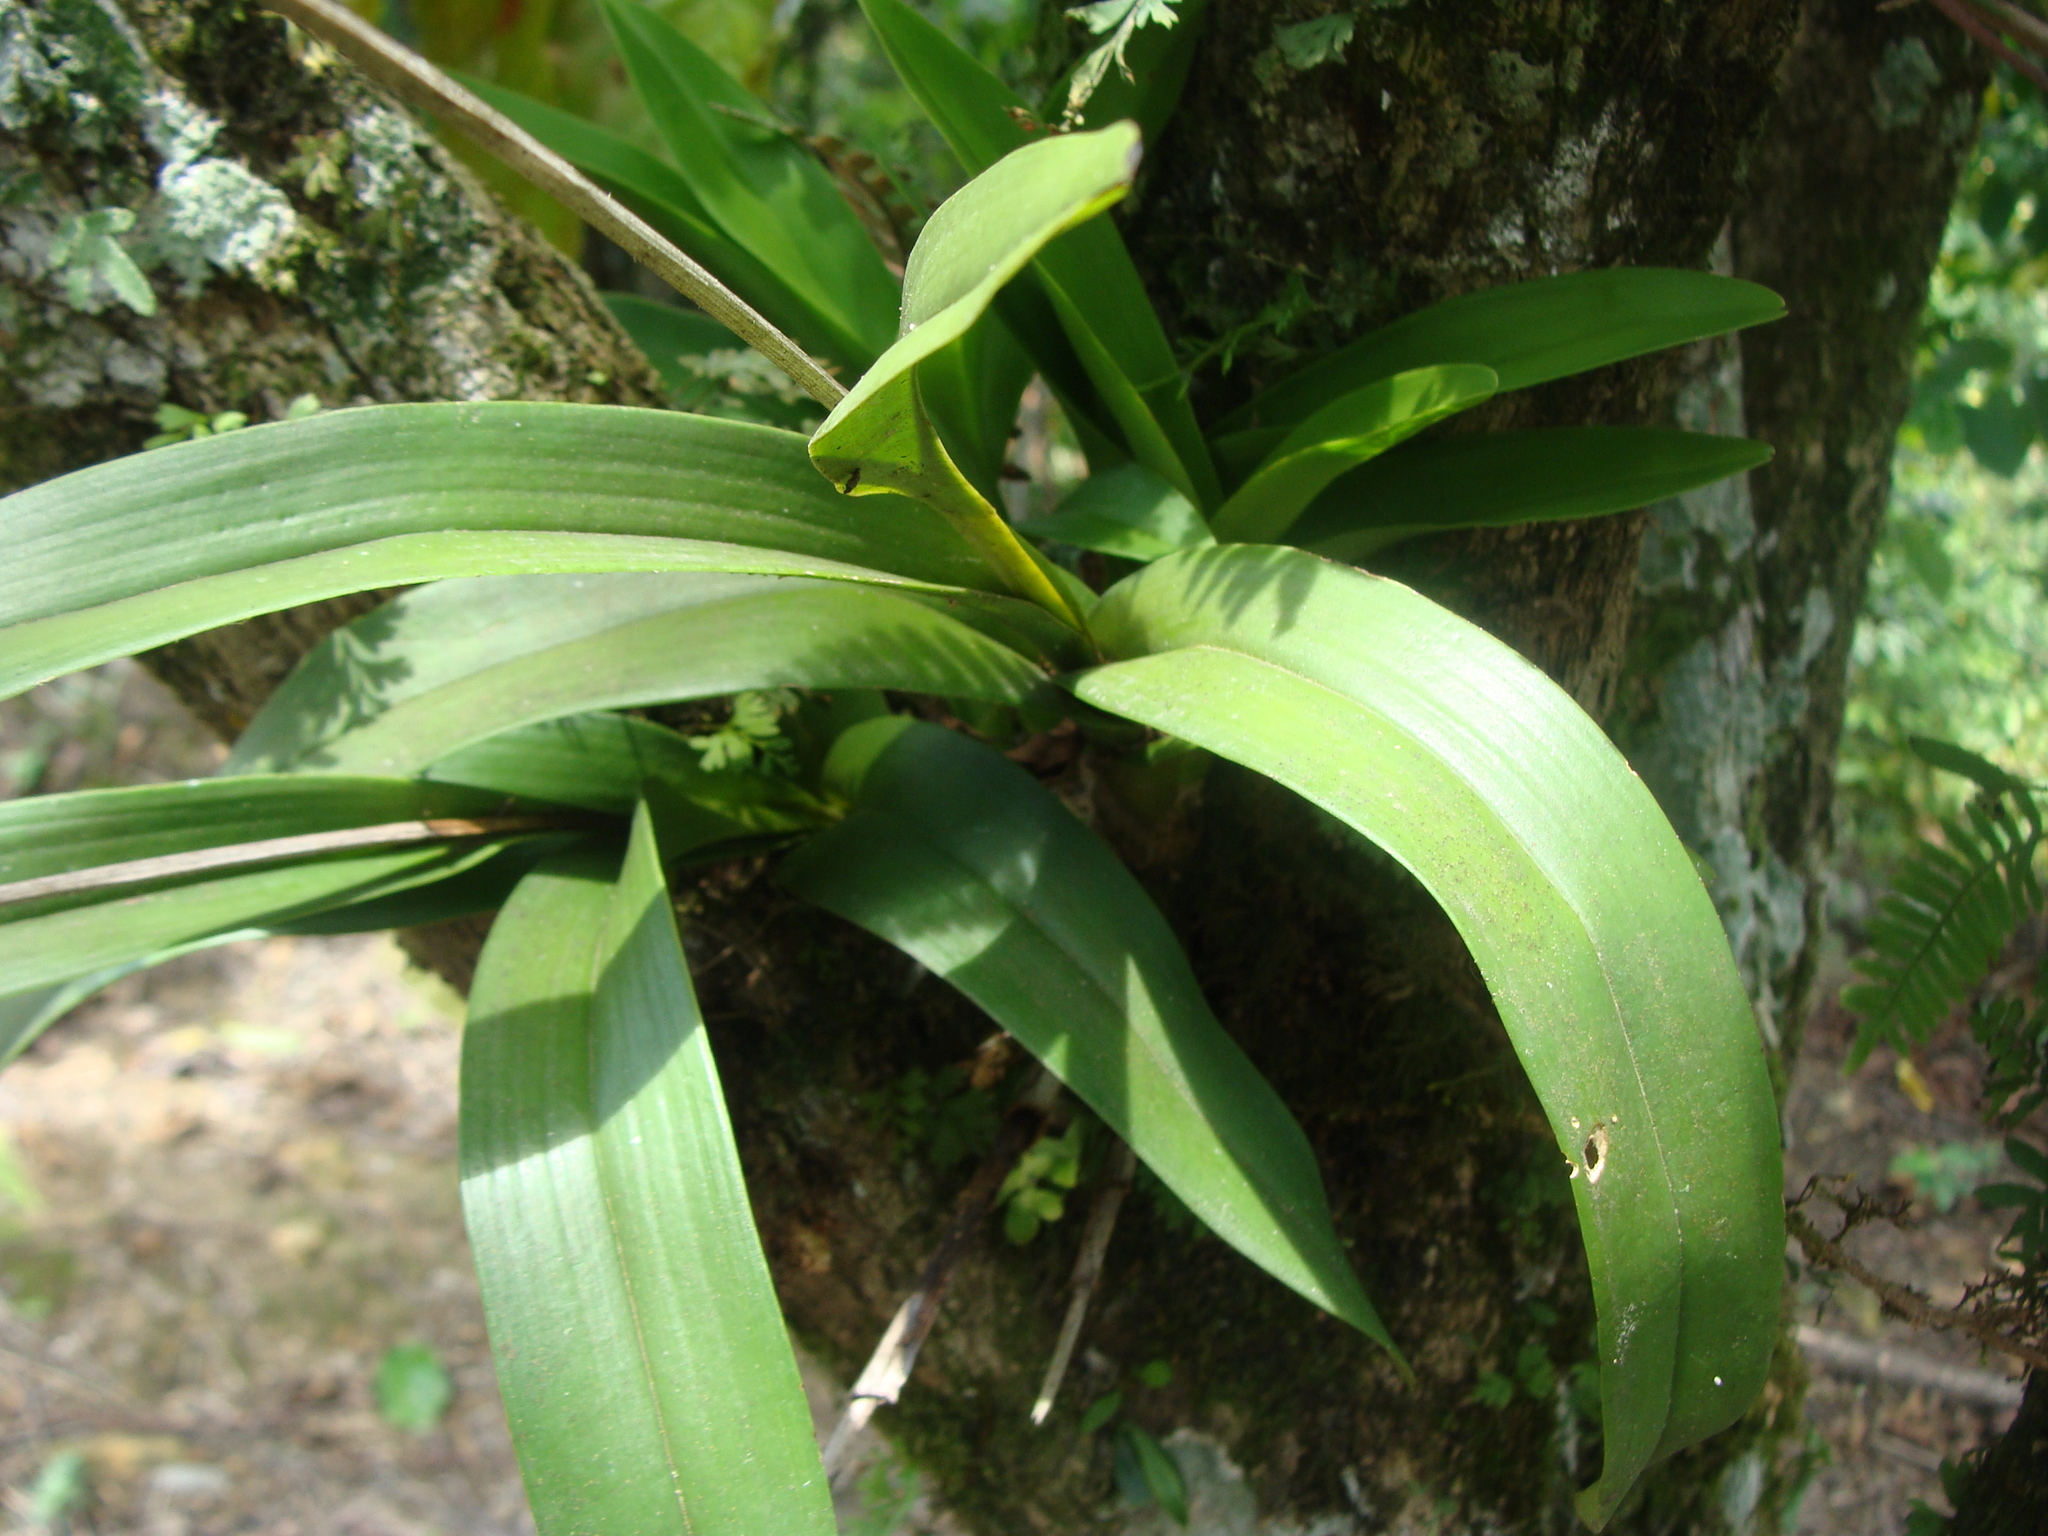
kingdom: Plantae
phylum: Tracheophyta
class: Liliopsida
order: Asparagales
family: Orchidaceae
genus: Polystachya
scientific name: Polystachya foliosa
